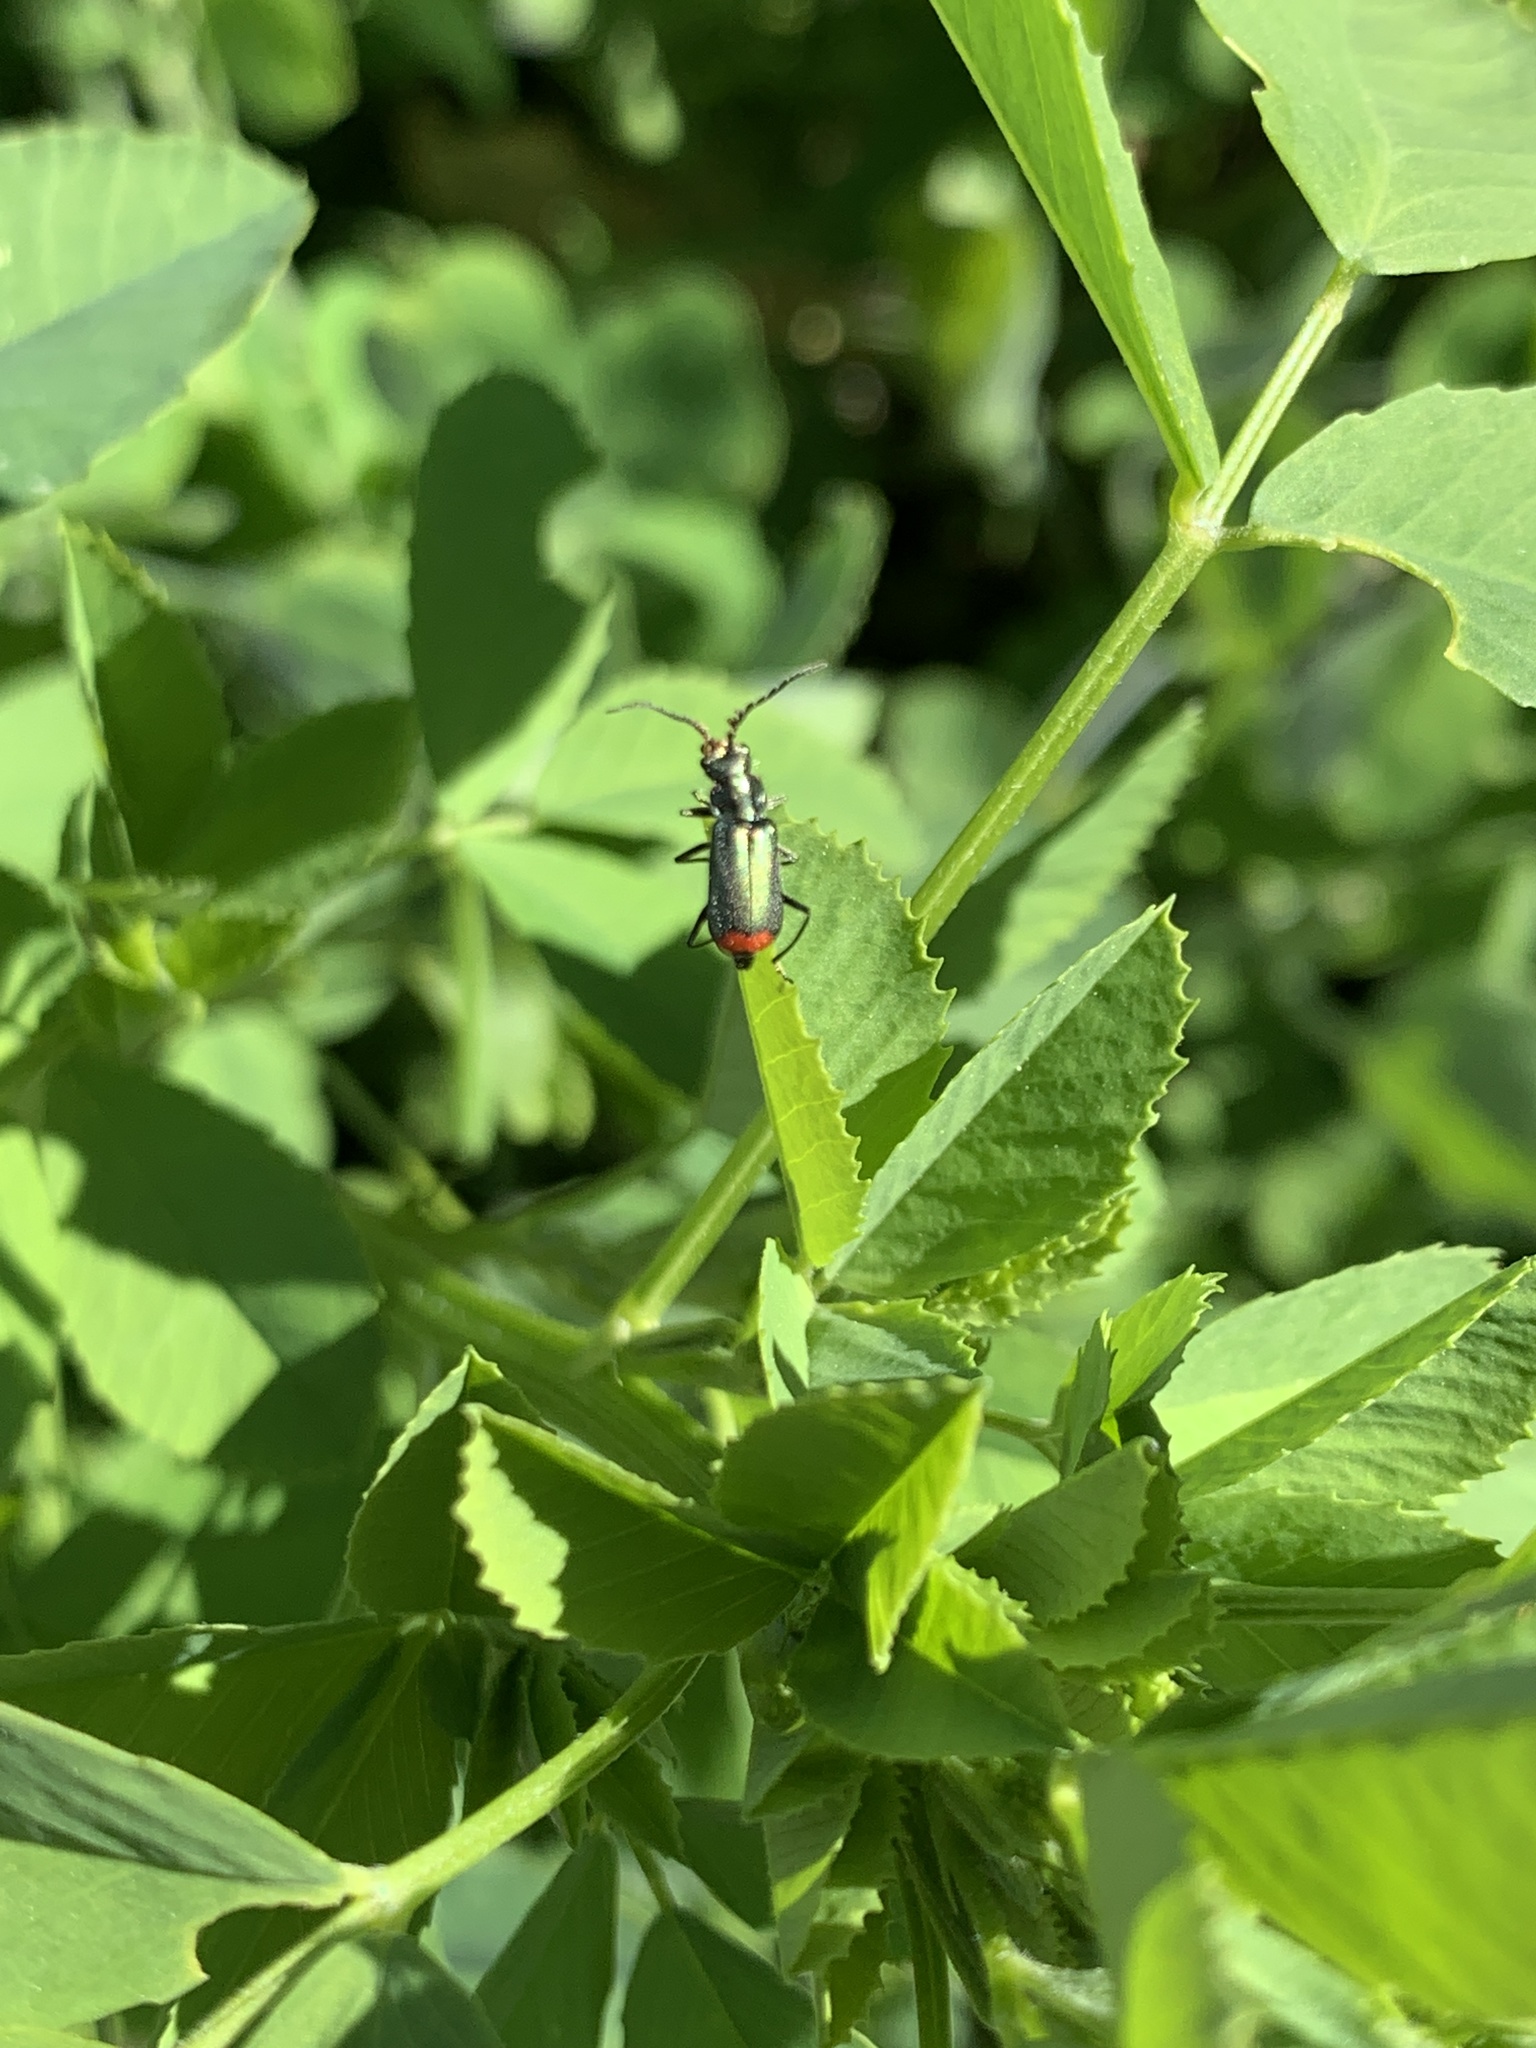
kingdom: Animalia
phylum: Arthropoda
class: Insecta
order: Coleoptera
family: Melyridae
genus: Malachius
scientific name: Malachius bipustulatus
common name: Malachite beetle
